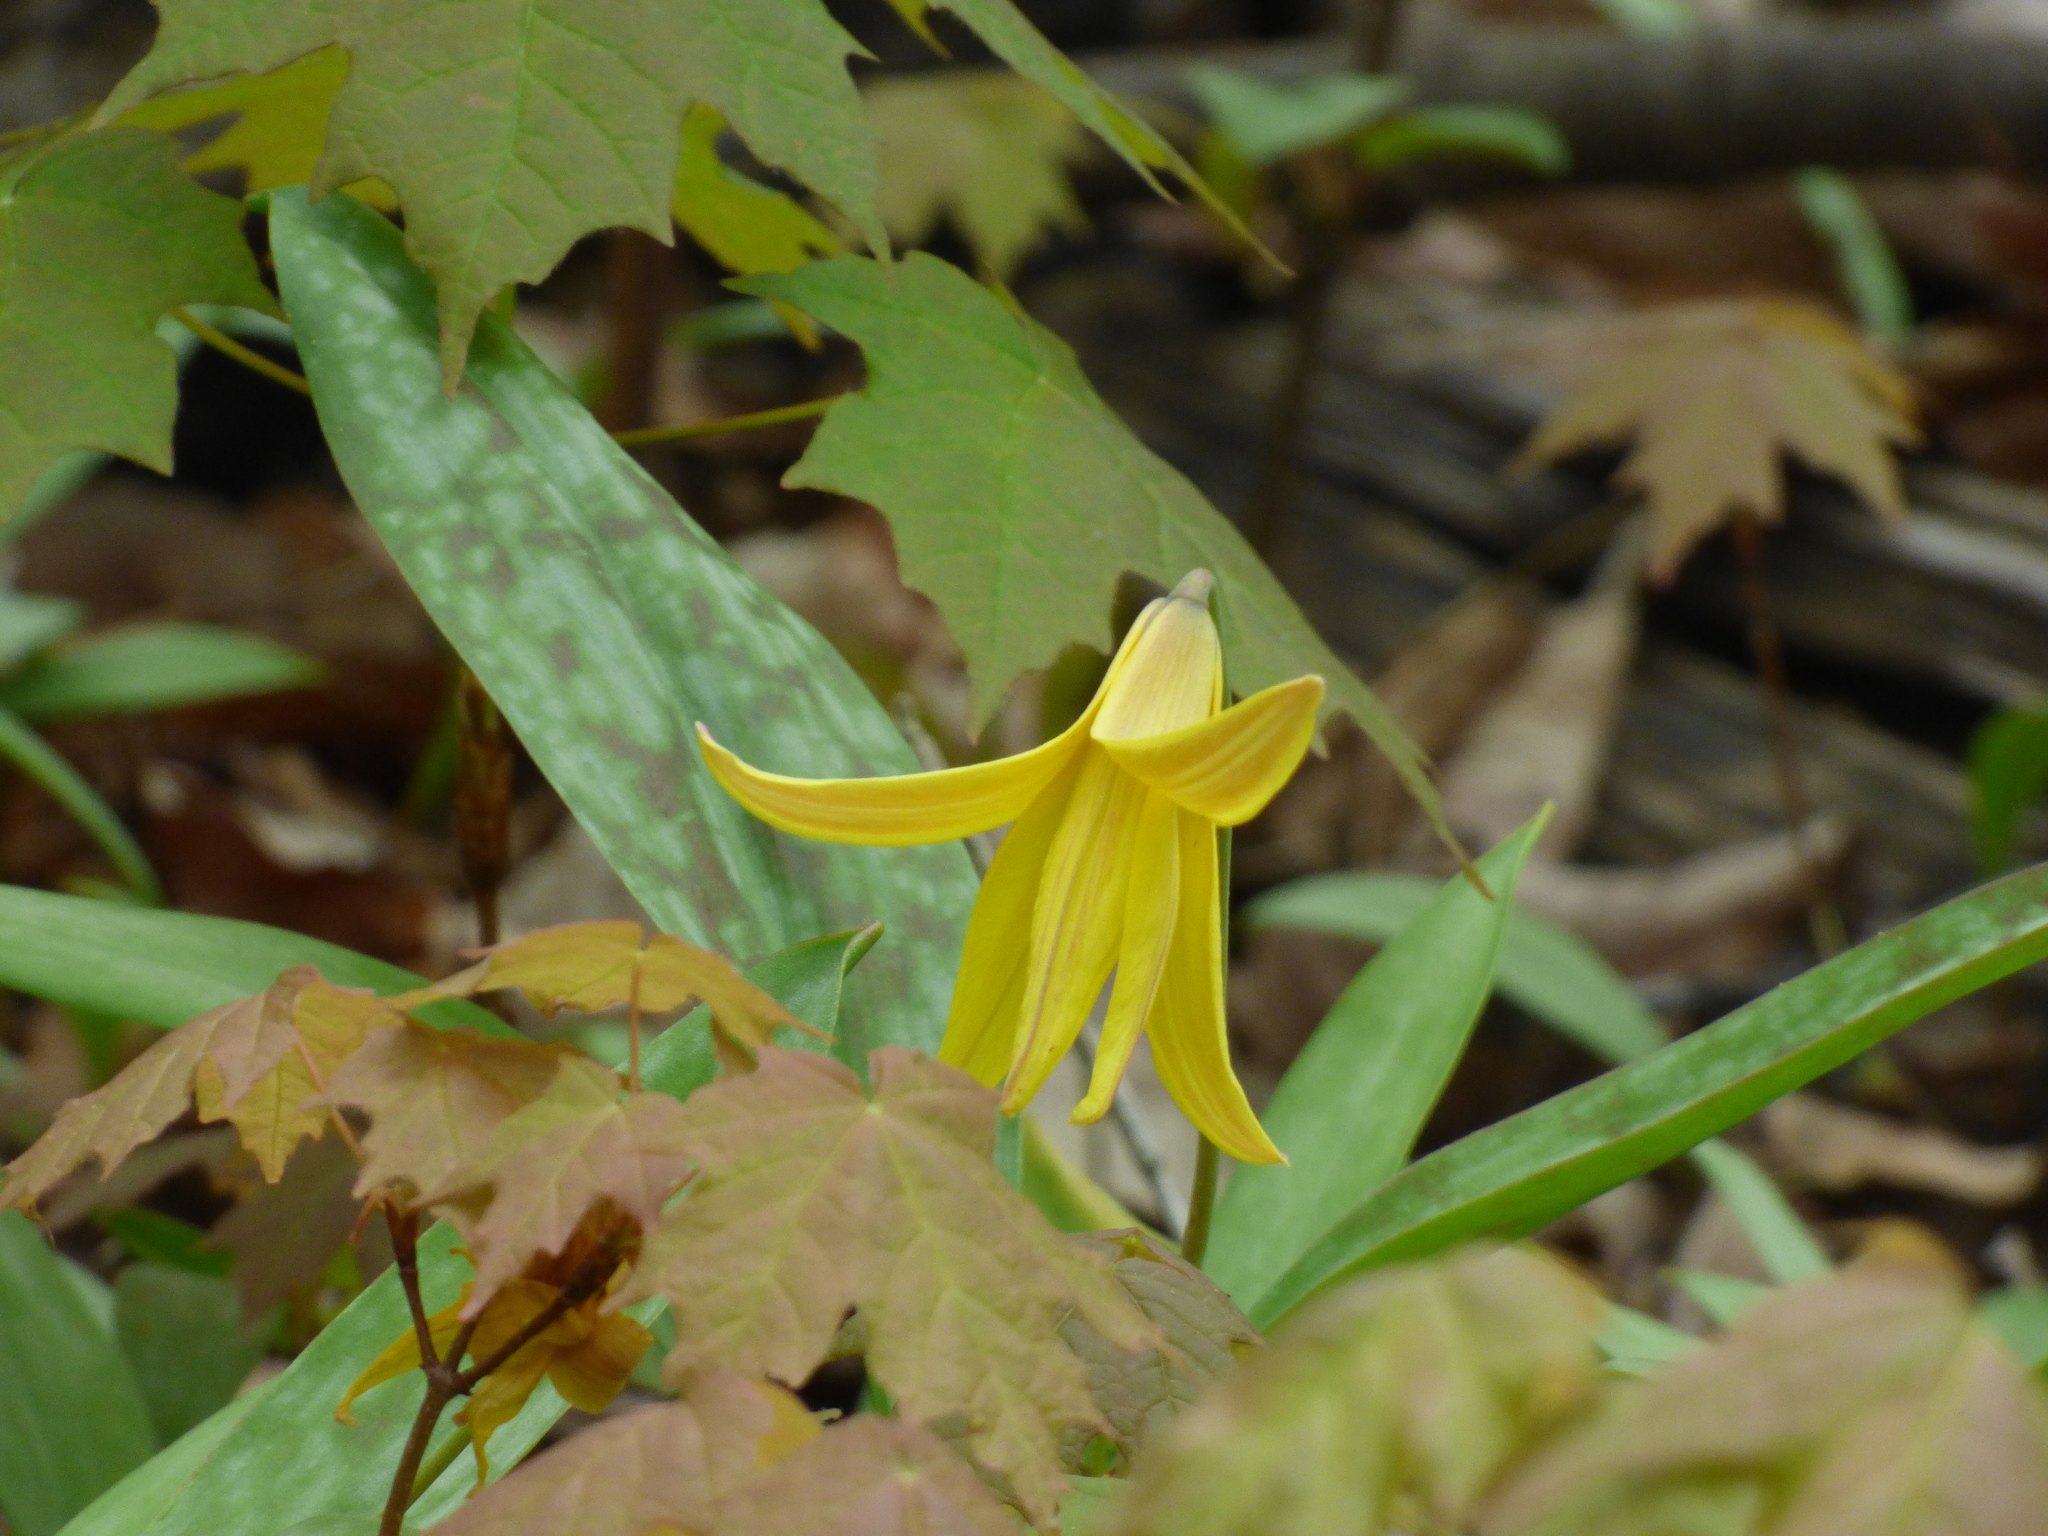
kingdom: Plantae
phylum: Tracheophyta
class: Liliopsida
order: Liliales
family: Liliaceae
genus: Erythronium
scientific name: Erythronium americanum
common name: Yellow adder's-tongue
